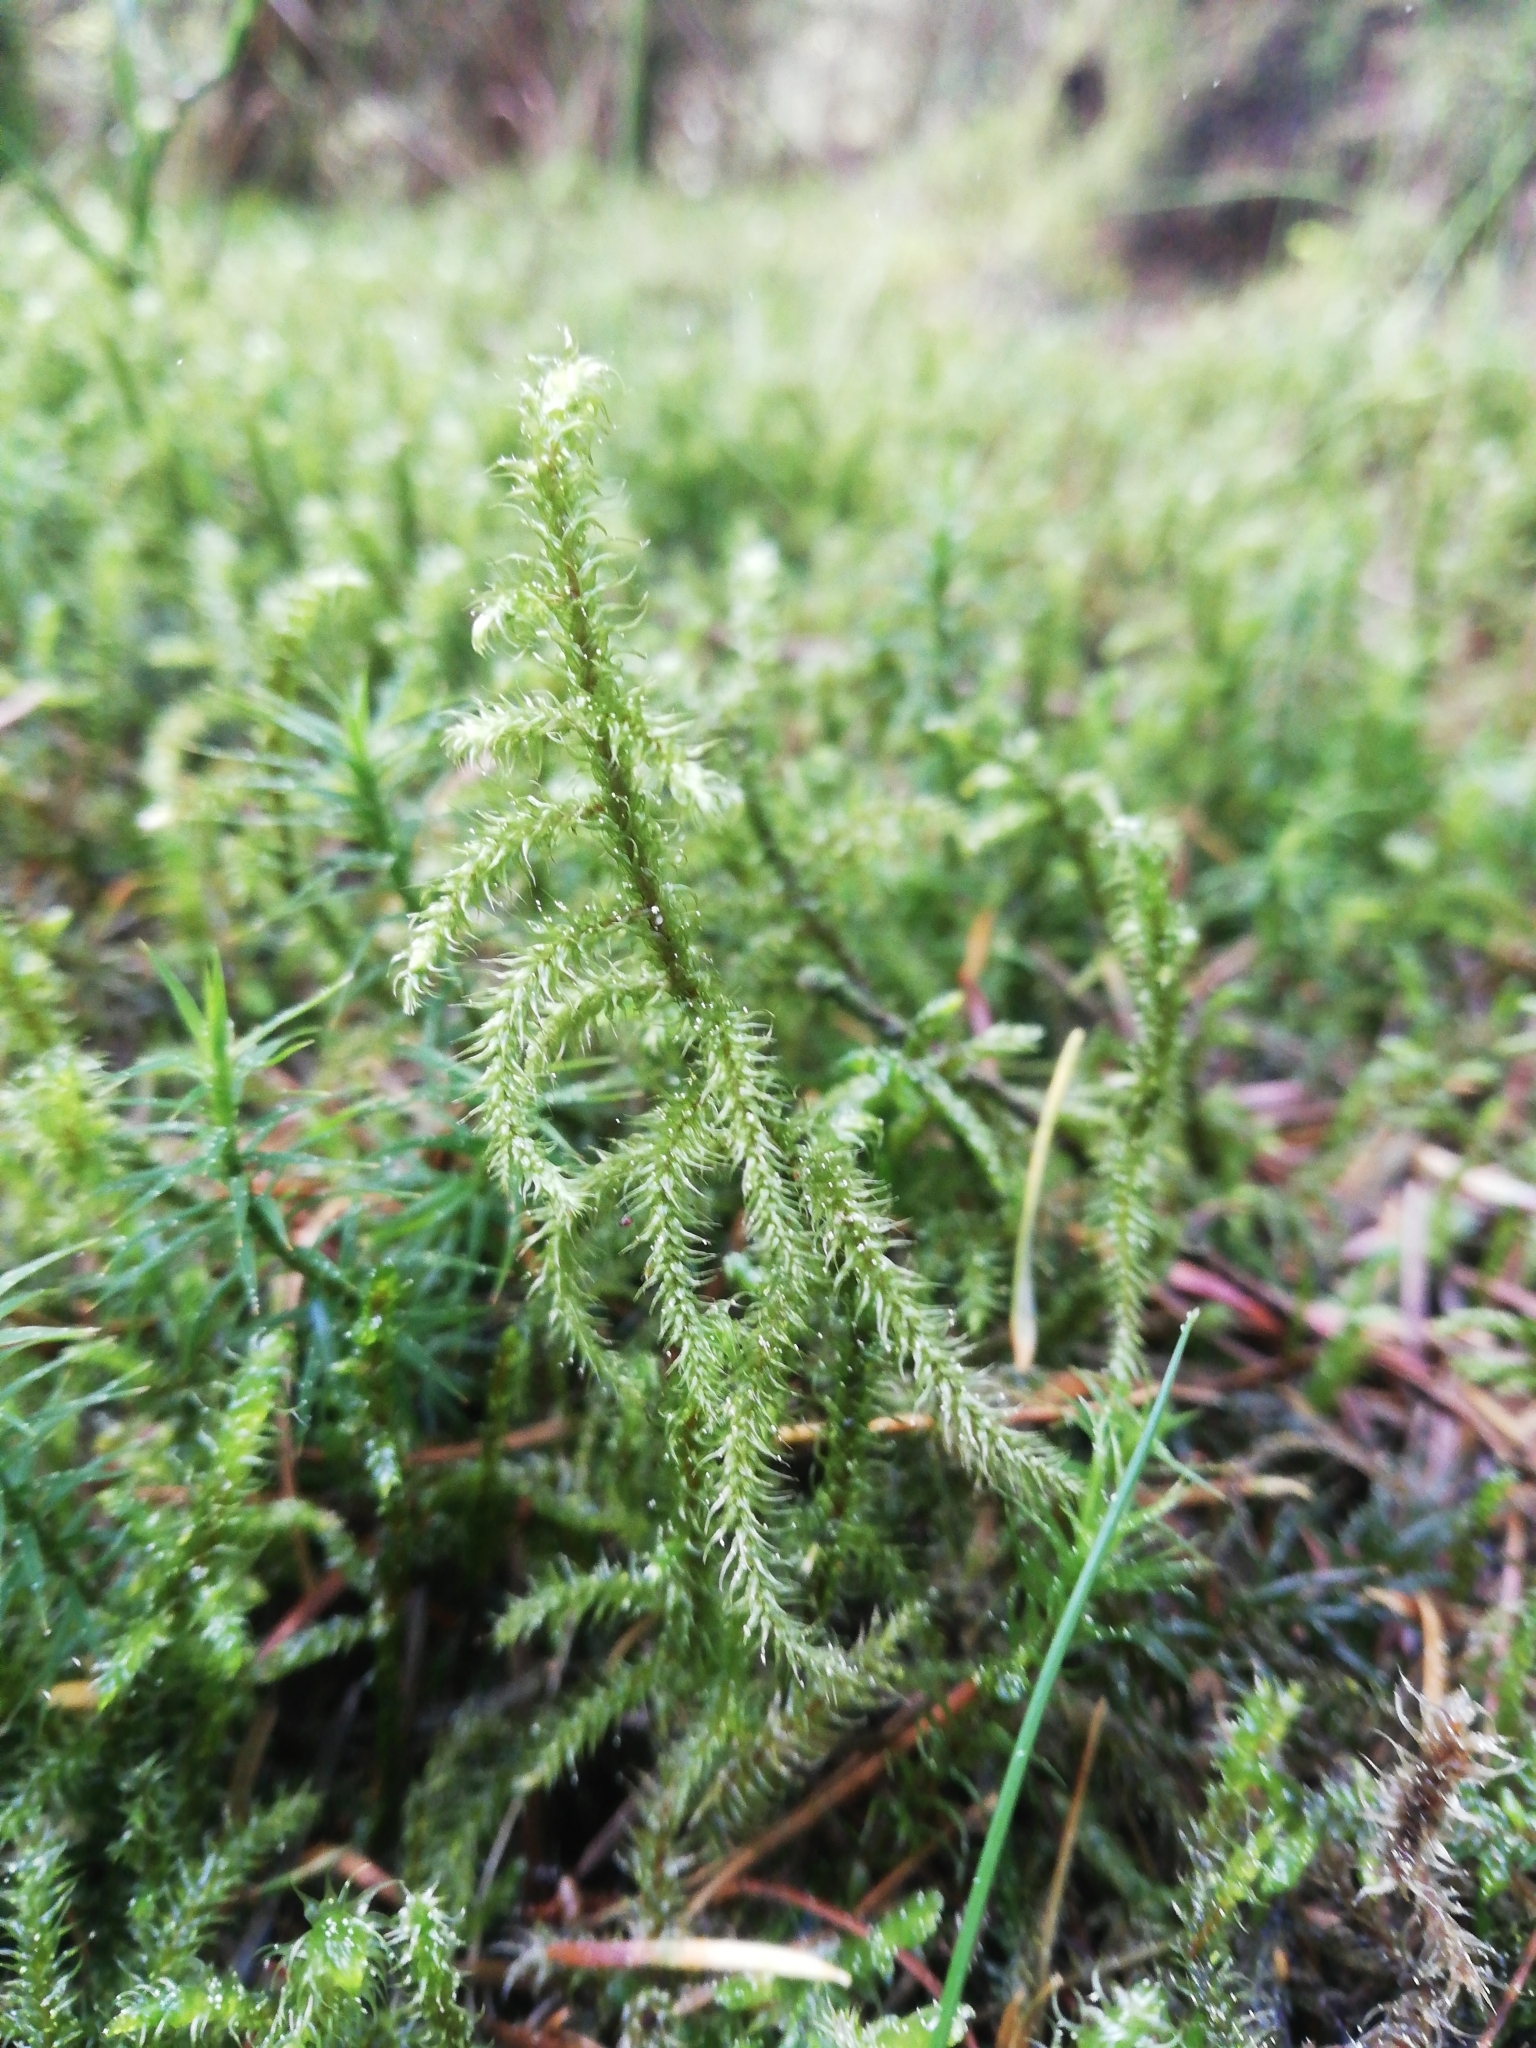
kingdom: Plantae
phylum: Bryophyta
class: Bryopsida
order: Hypnales
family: Hylocomiaceae
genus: Rhytidiadelphus
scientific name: Rhytidiadelphus loreus
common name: Lanky moss
